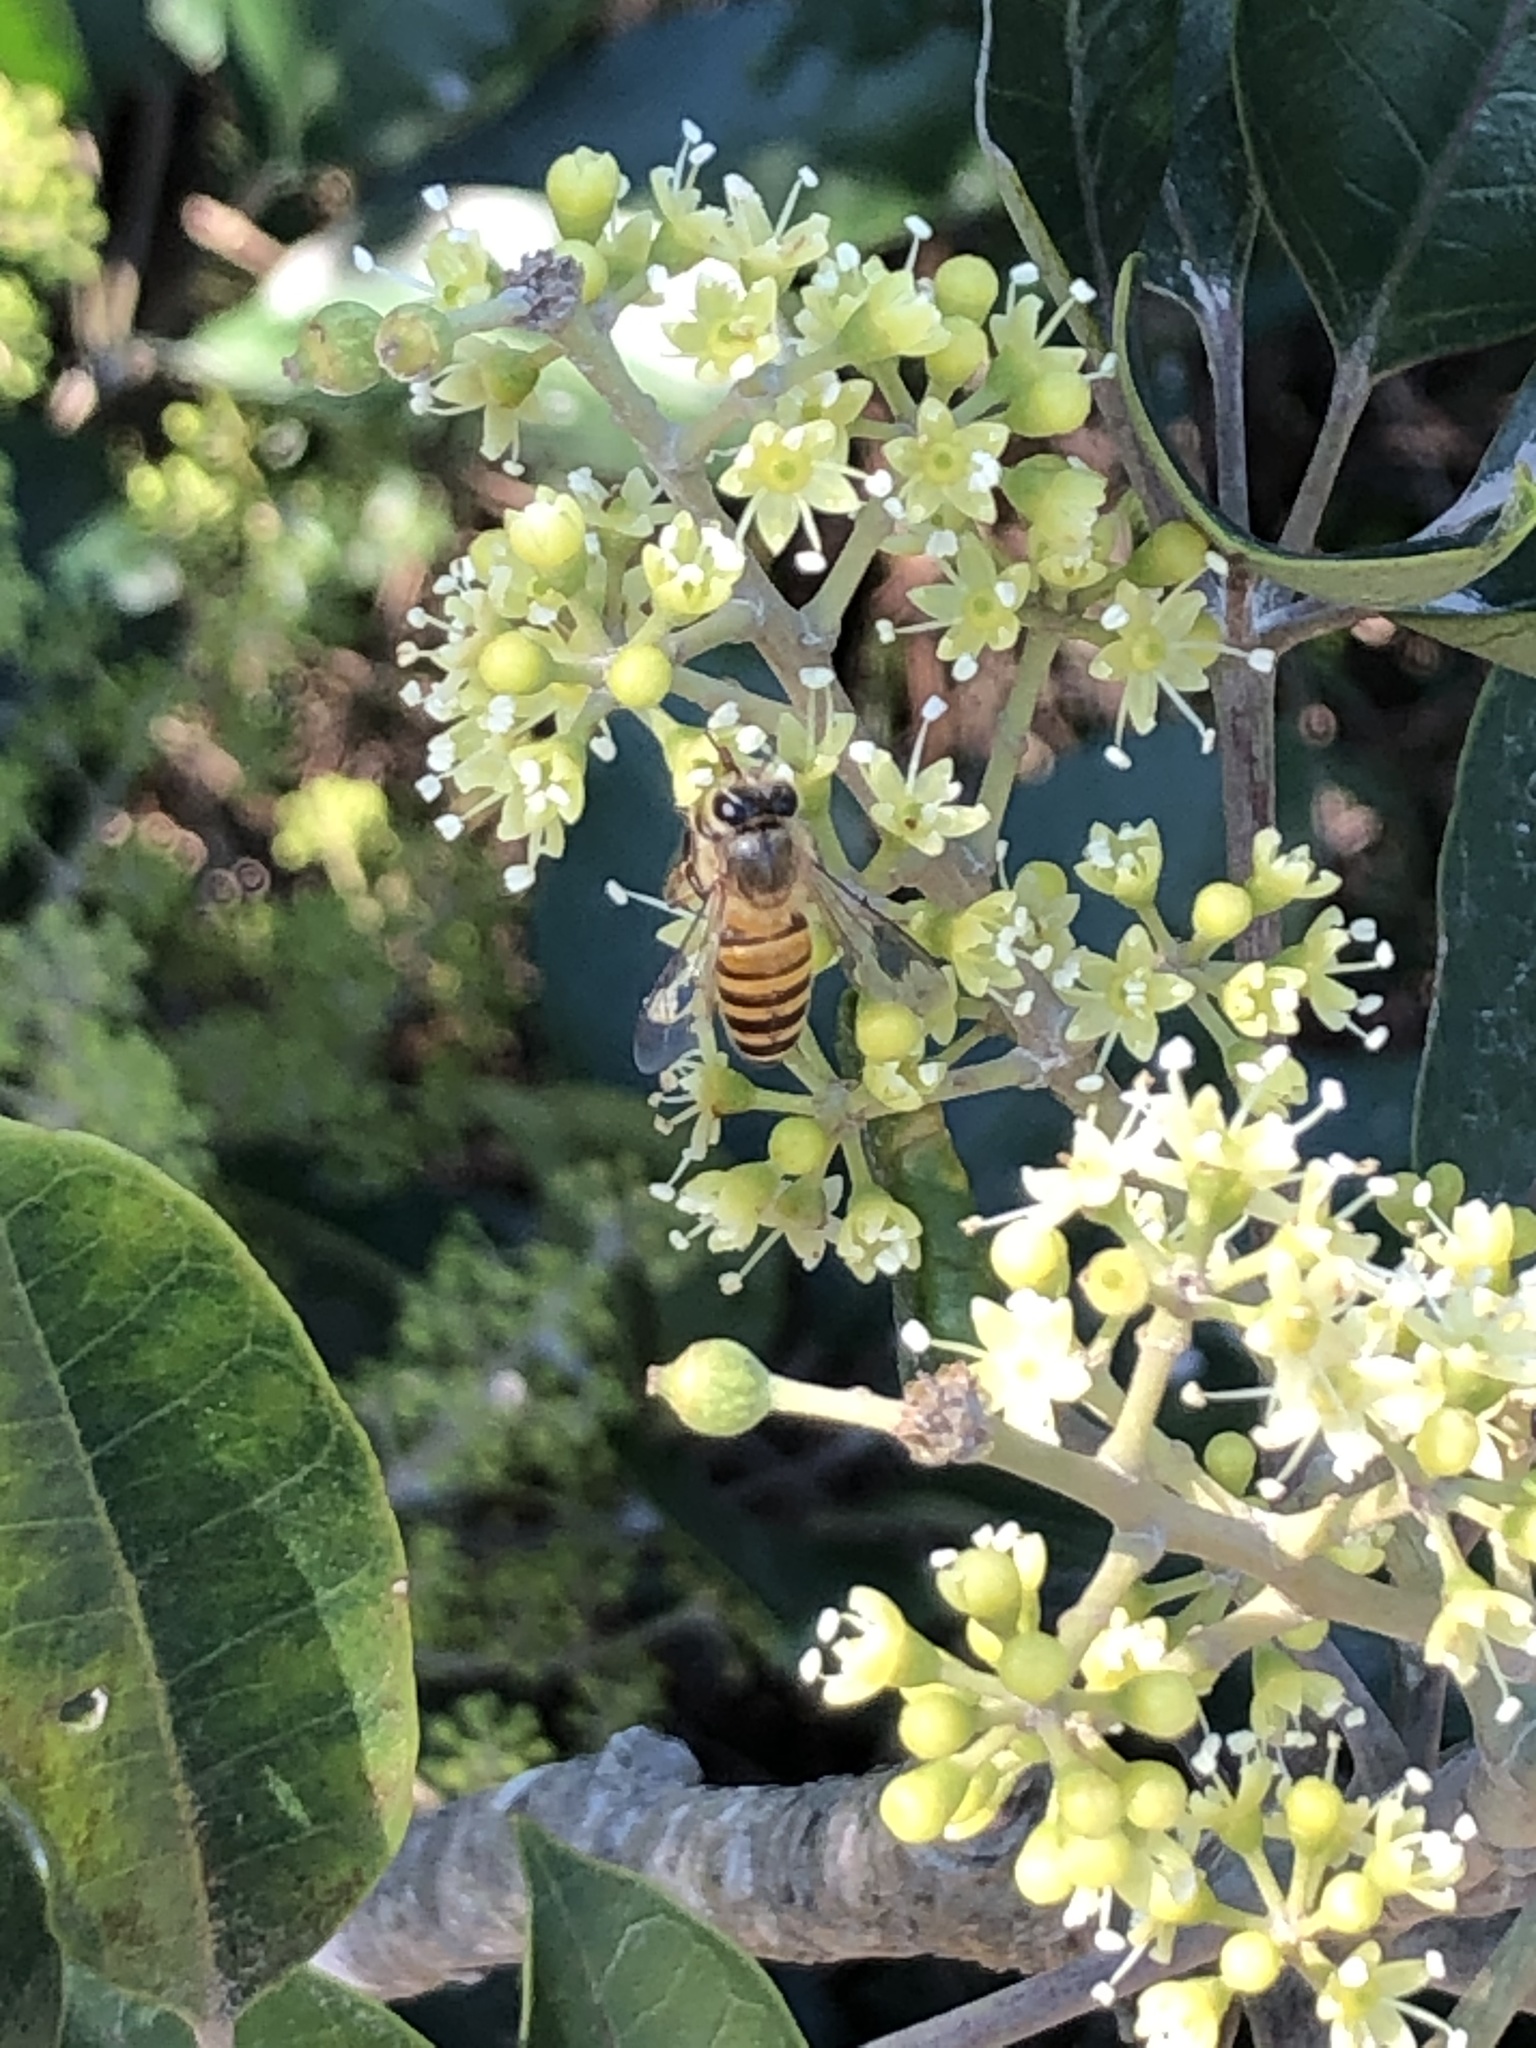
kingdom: Animalia
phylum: Arthropoda
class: Insecta
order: Hymenoptera
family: Apidae
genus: Apis
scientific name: Apis cerana
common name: Honey bee
